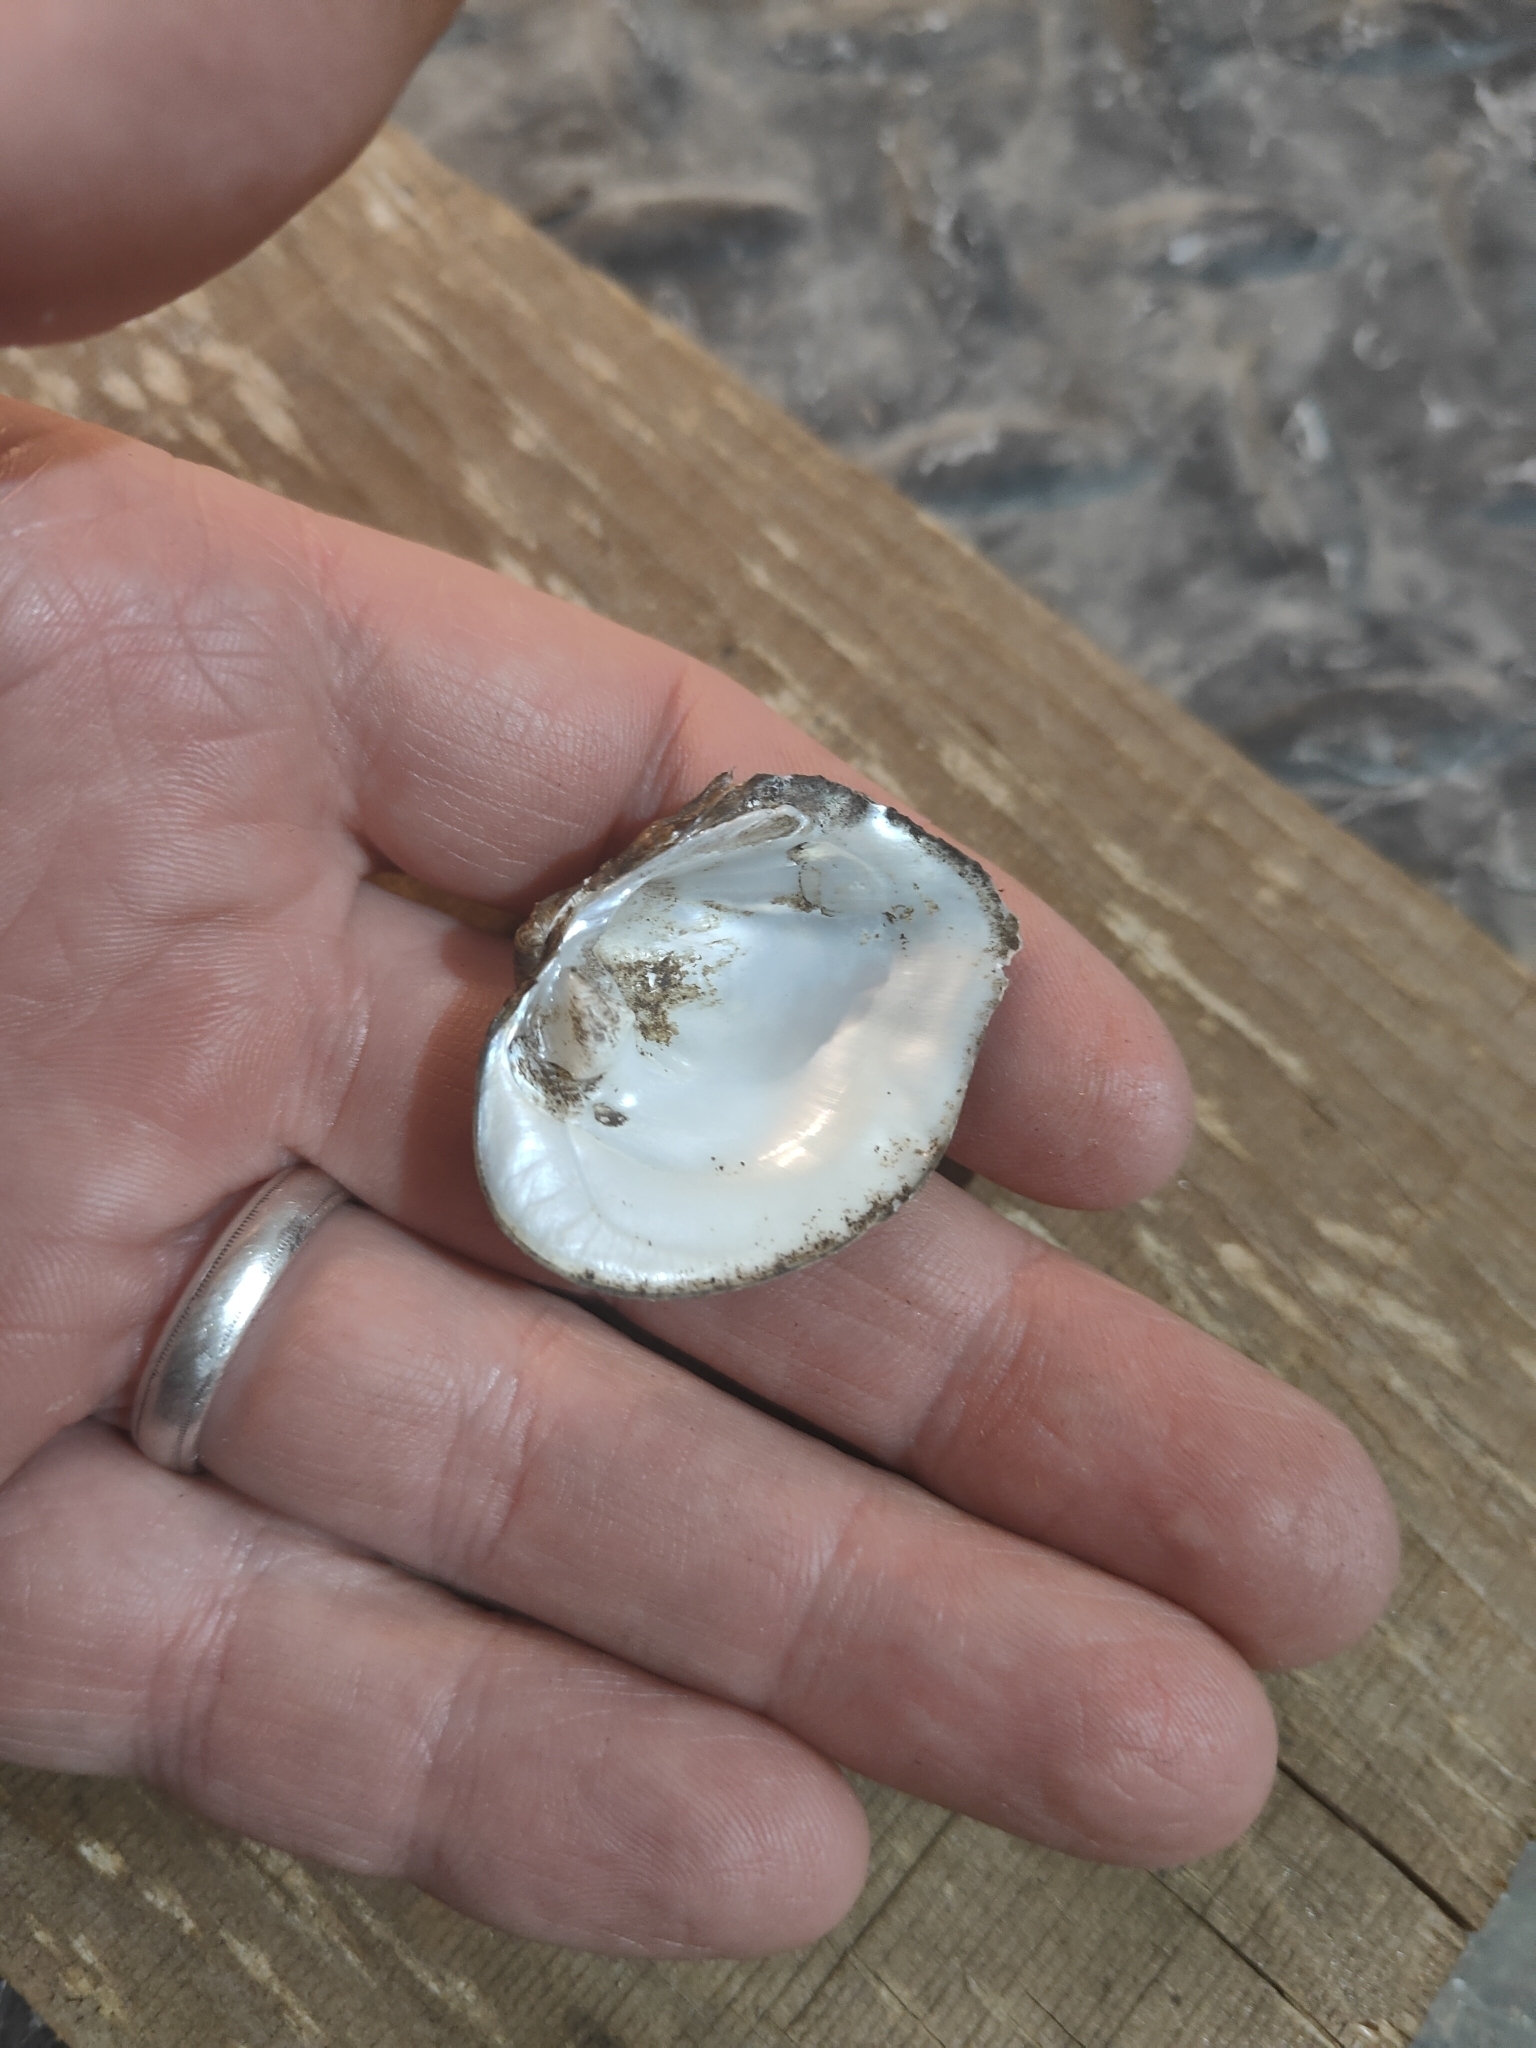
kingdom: Animalia
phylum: Mollusca
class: Bivalvia
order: Unionida
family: Unionidae
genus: Quadrula
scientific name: Quadrula quadrula
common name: Mapleleaf
